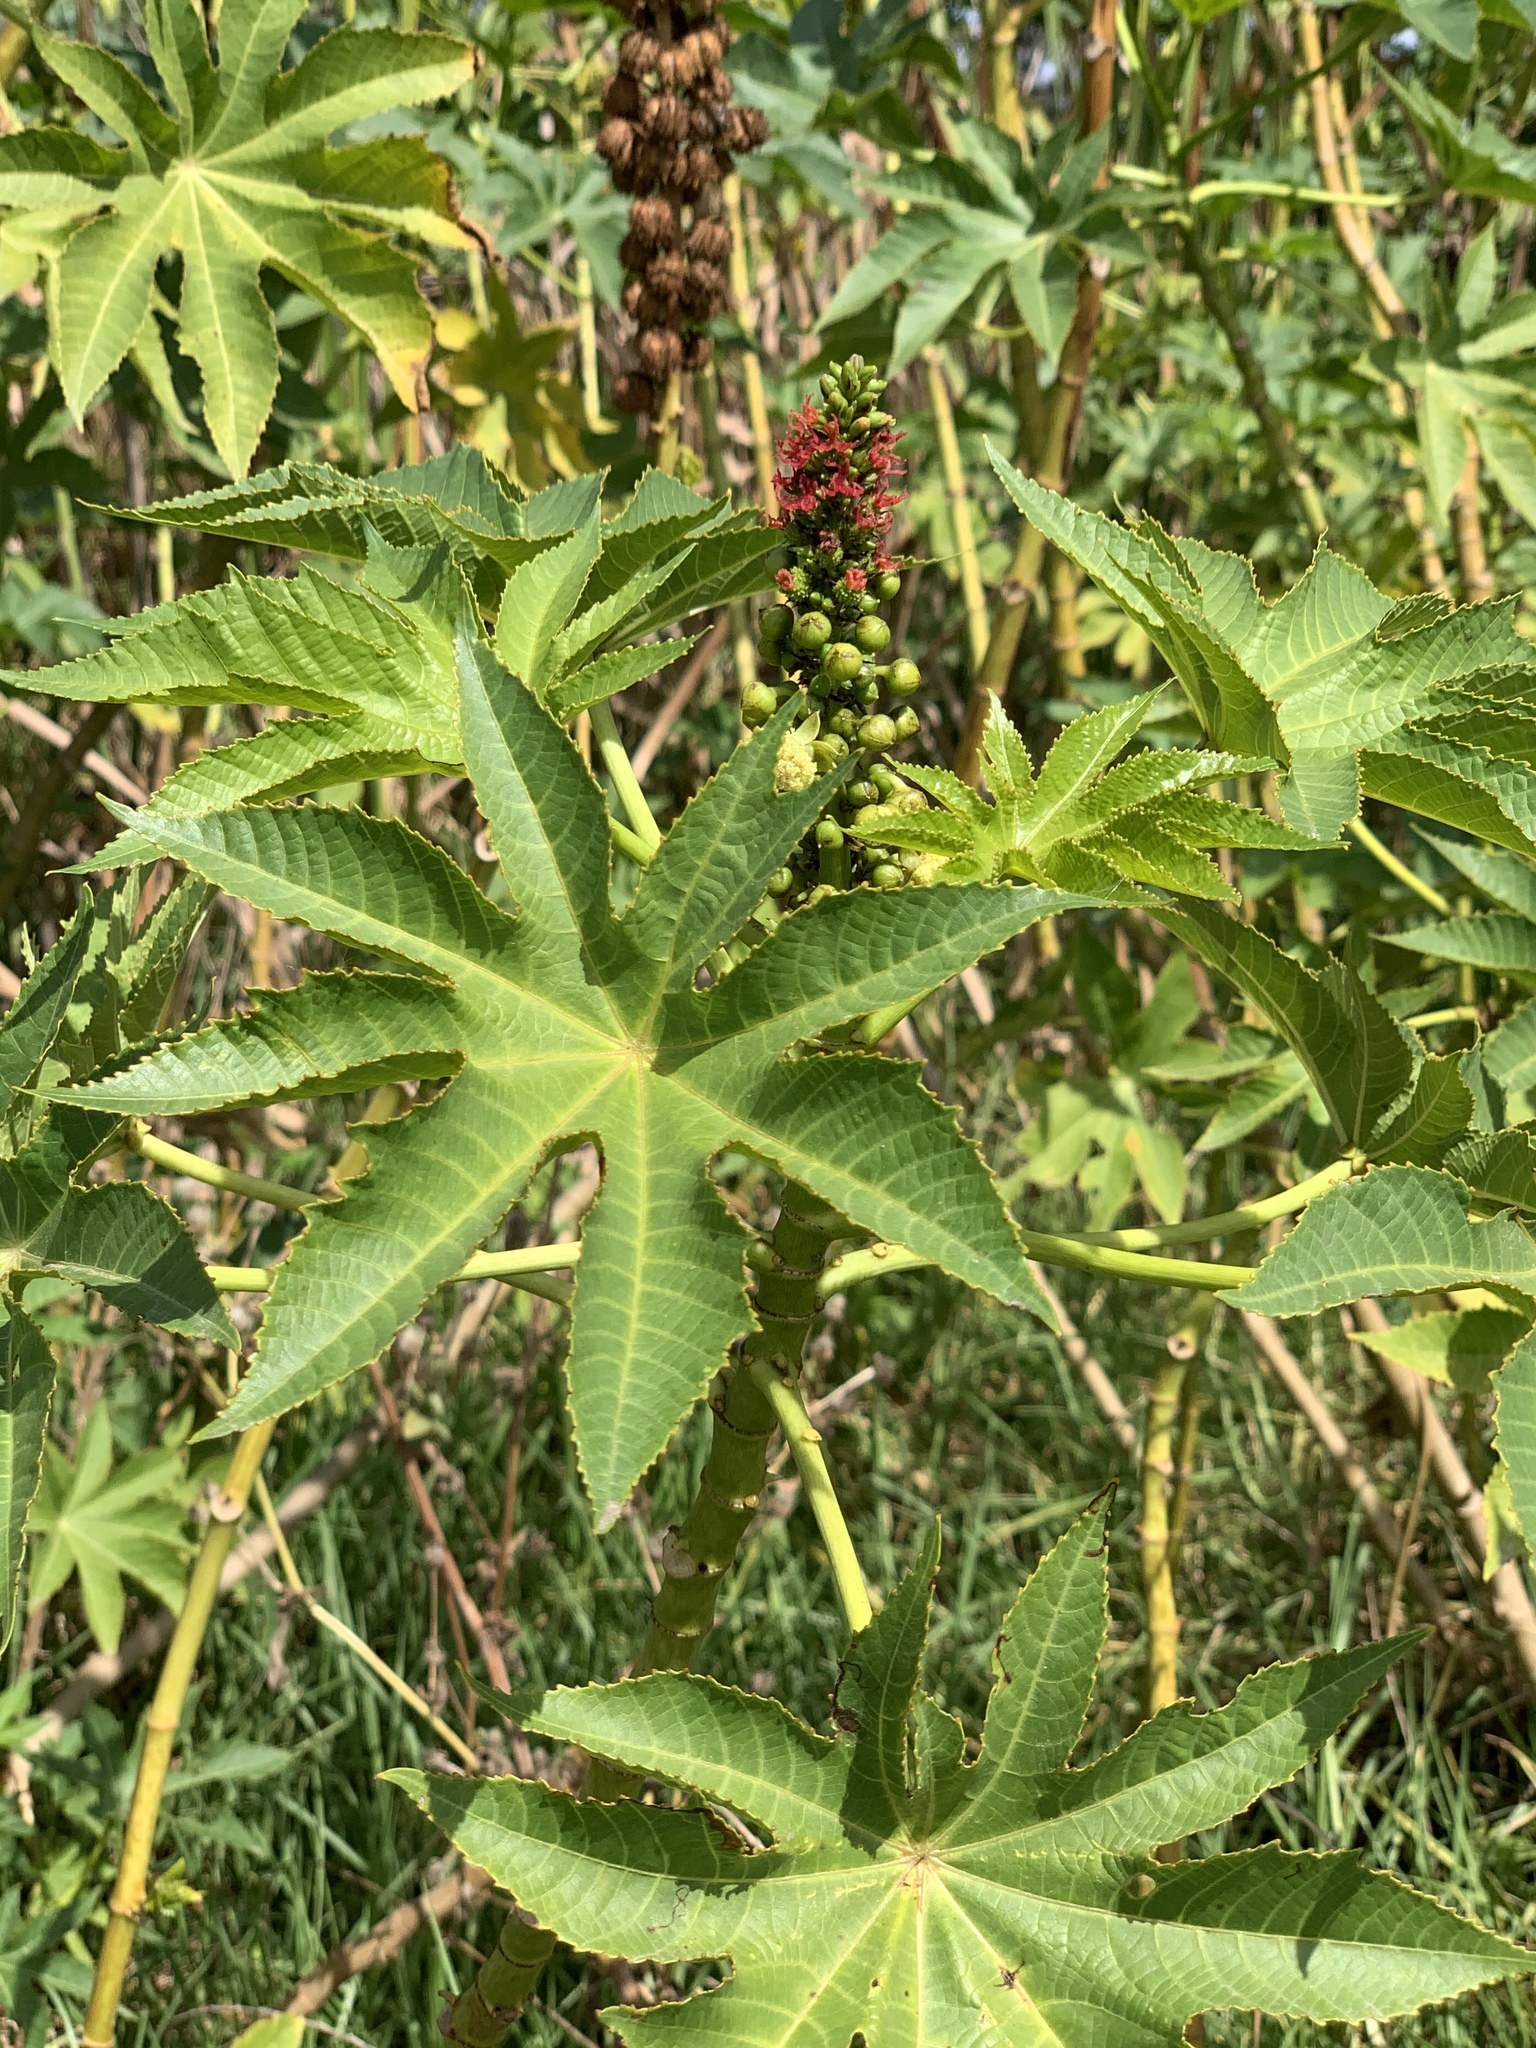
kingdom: Plantae
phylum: Tracheophyta
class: Magnoliopsida
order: Malpighiales
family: Euphorbiaceae
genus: Ricinus
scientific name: Ricinus communis
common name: Castor-oil-plant
